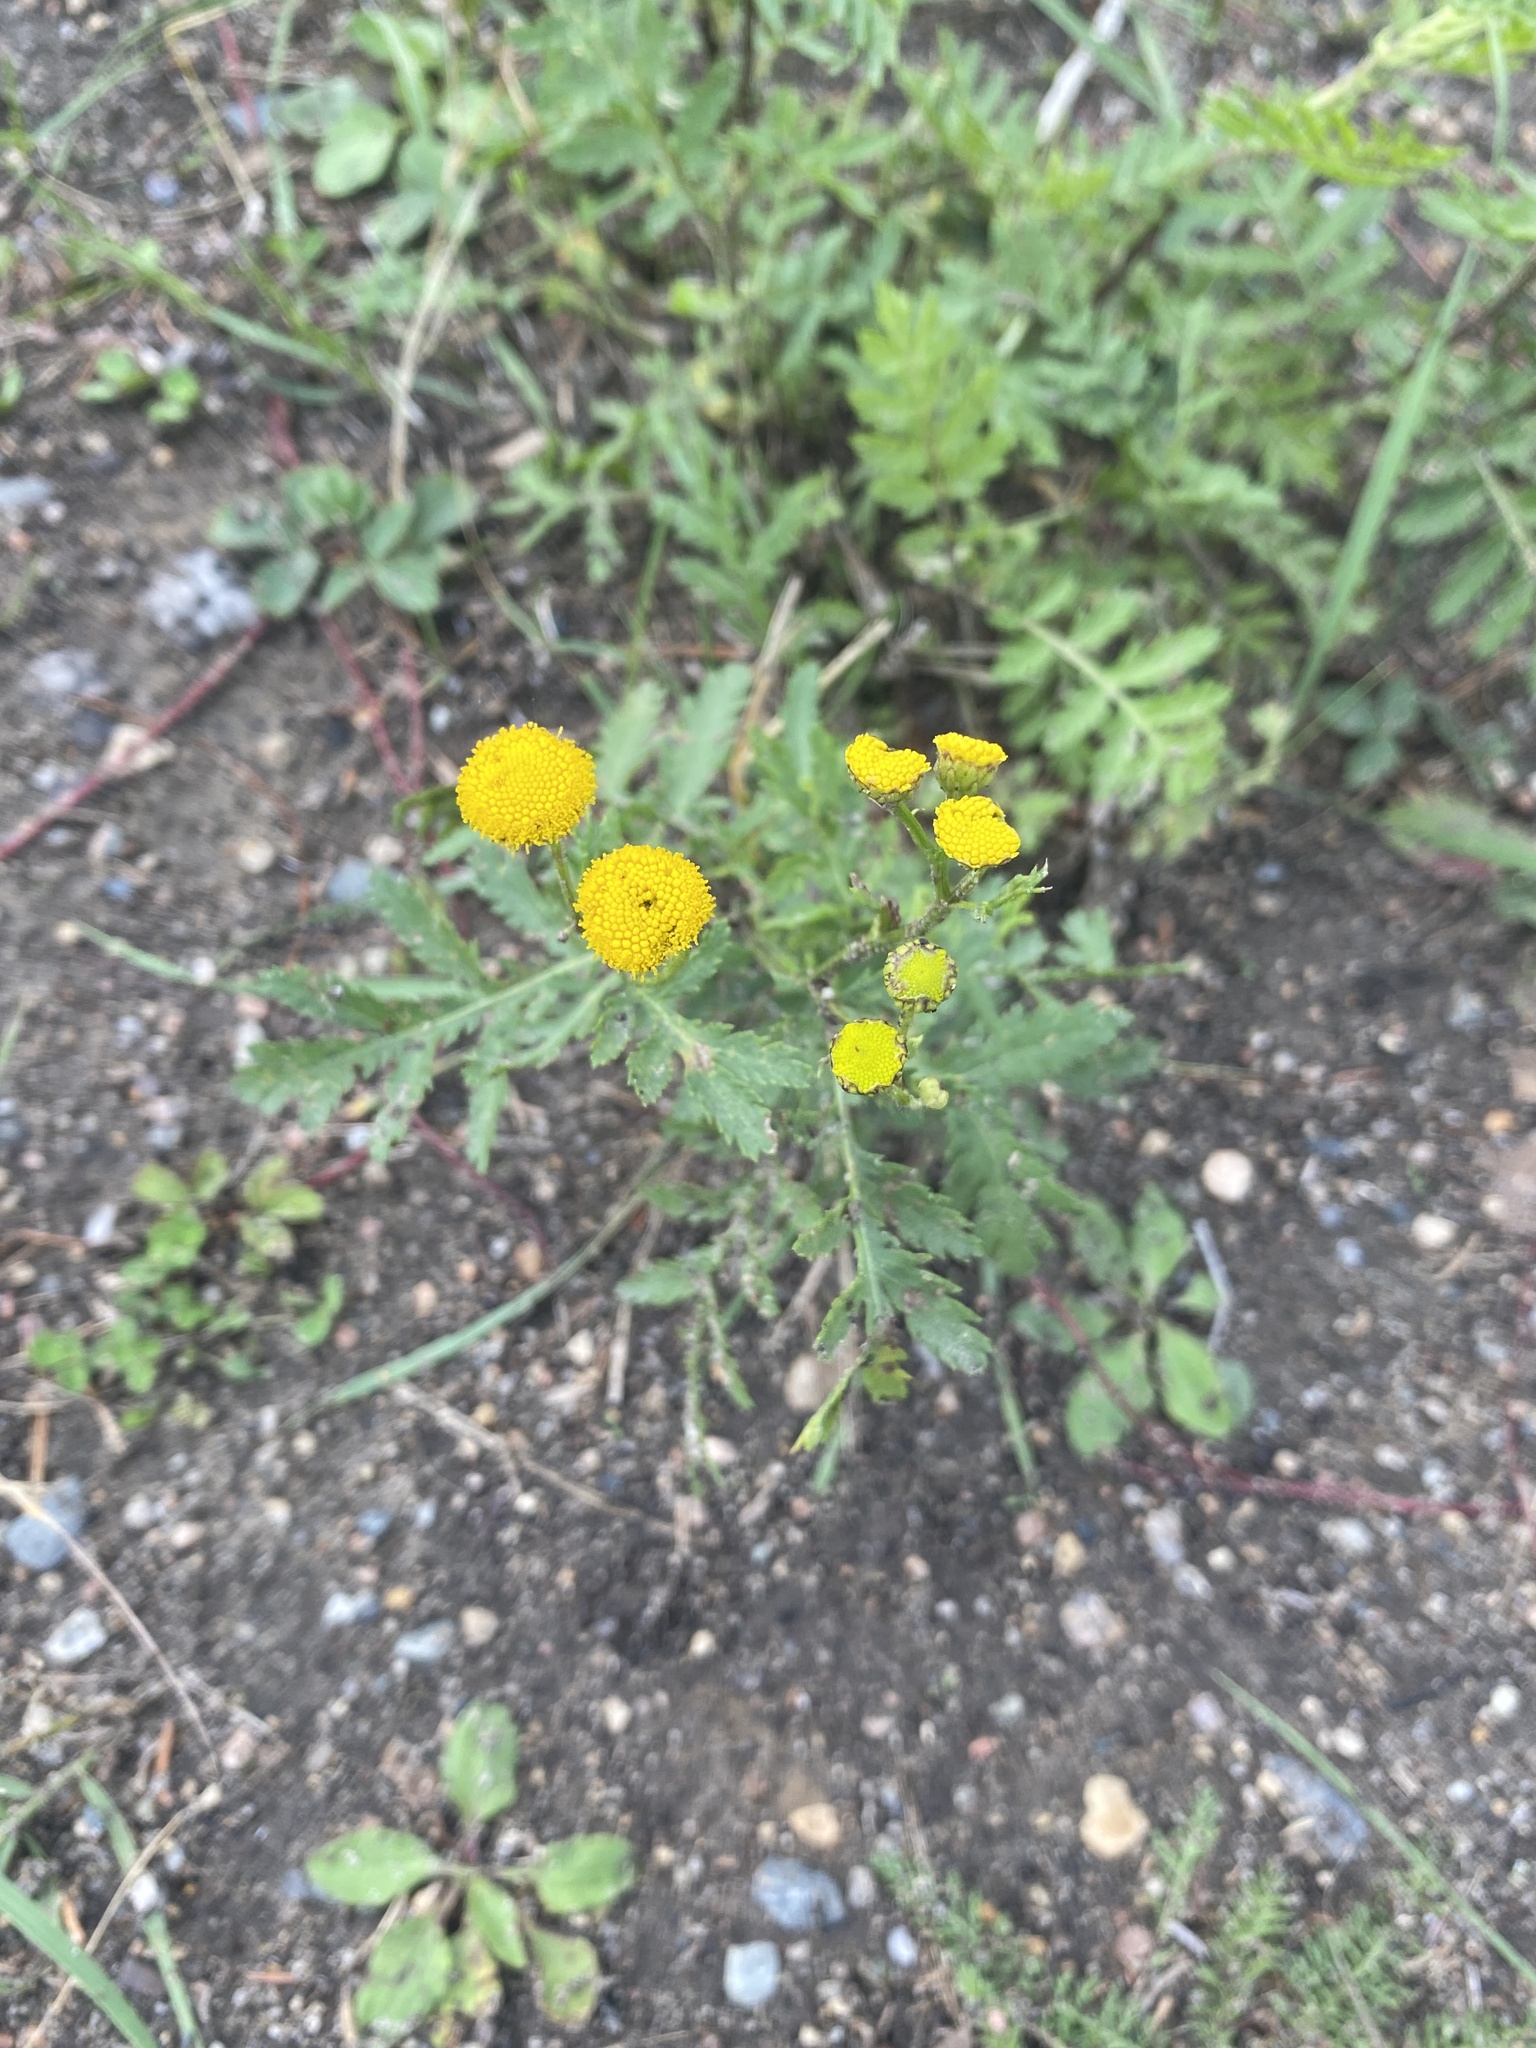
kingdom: Plantae
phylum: Tracheophyta
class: Magnoliopsida
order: Asterales
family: Asteraceae
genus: Tanacetum
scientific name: Tanacetum vulgare
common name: Common tansy
